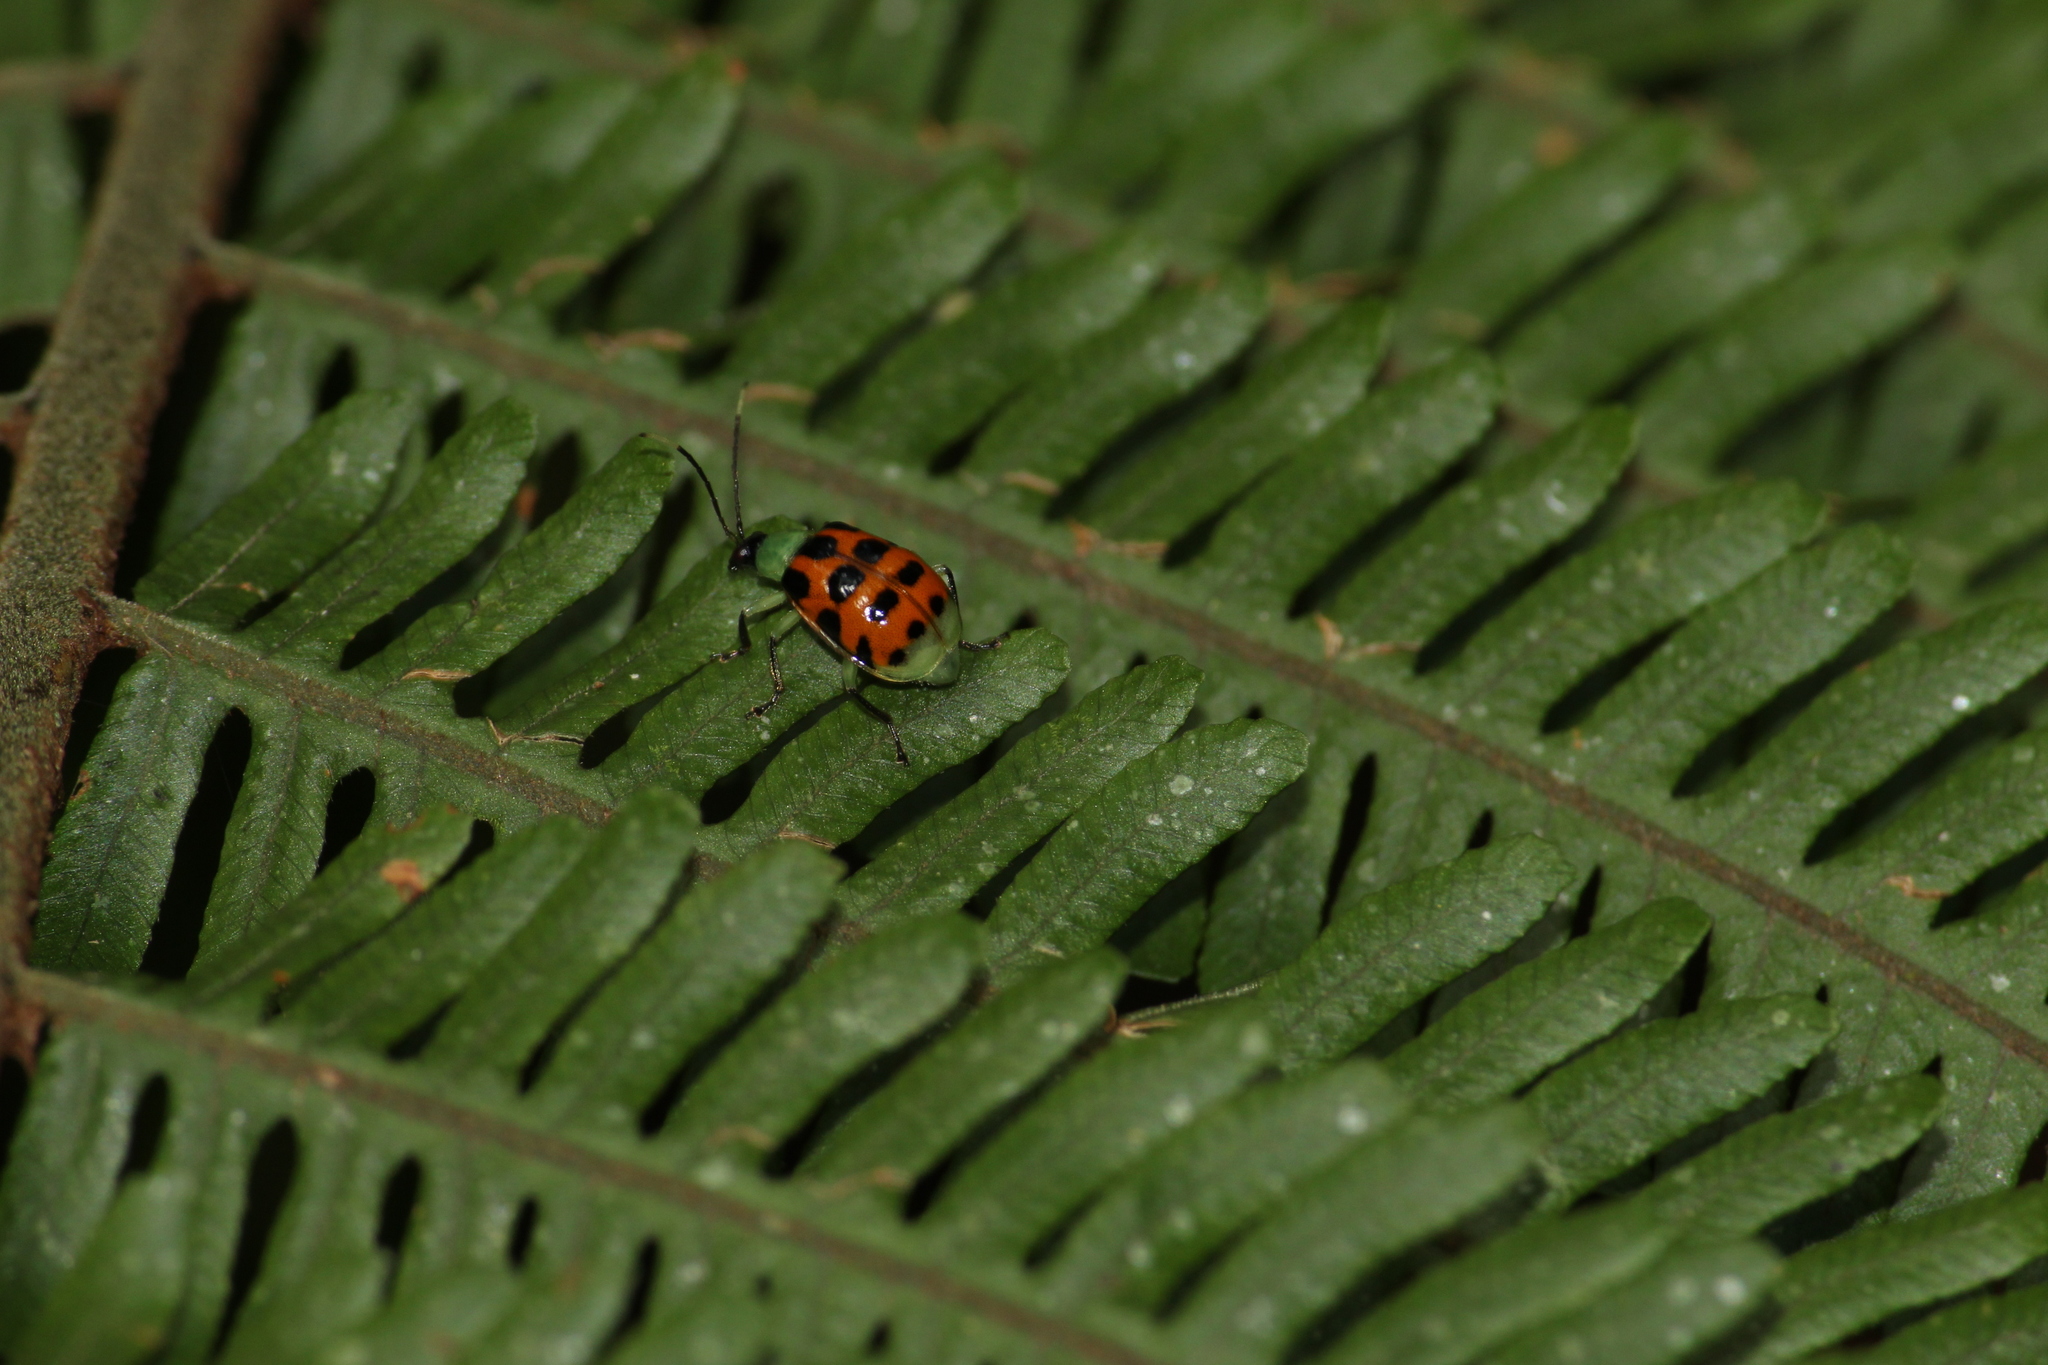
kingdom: Animalia
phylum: Arthropoda
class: Insecta
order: Coleoptera
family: Chrysomelidae
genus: Diabrotica
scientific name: Diabrotica limitata
